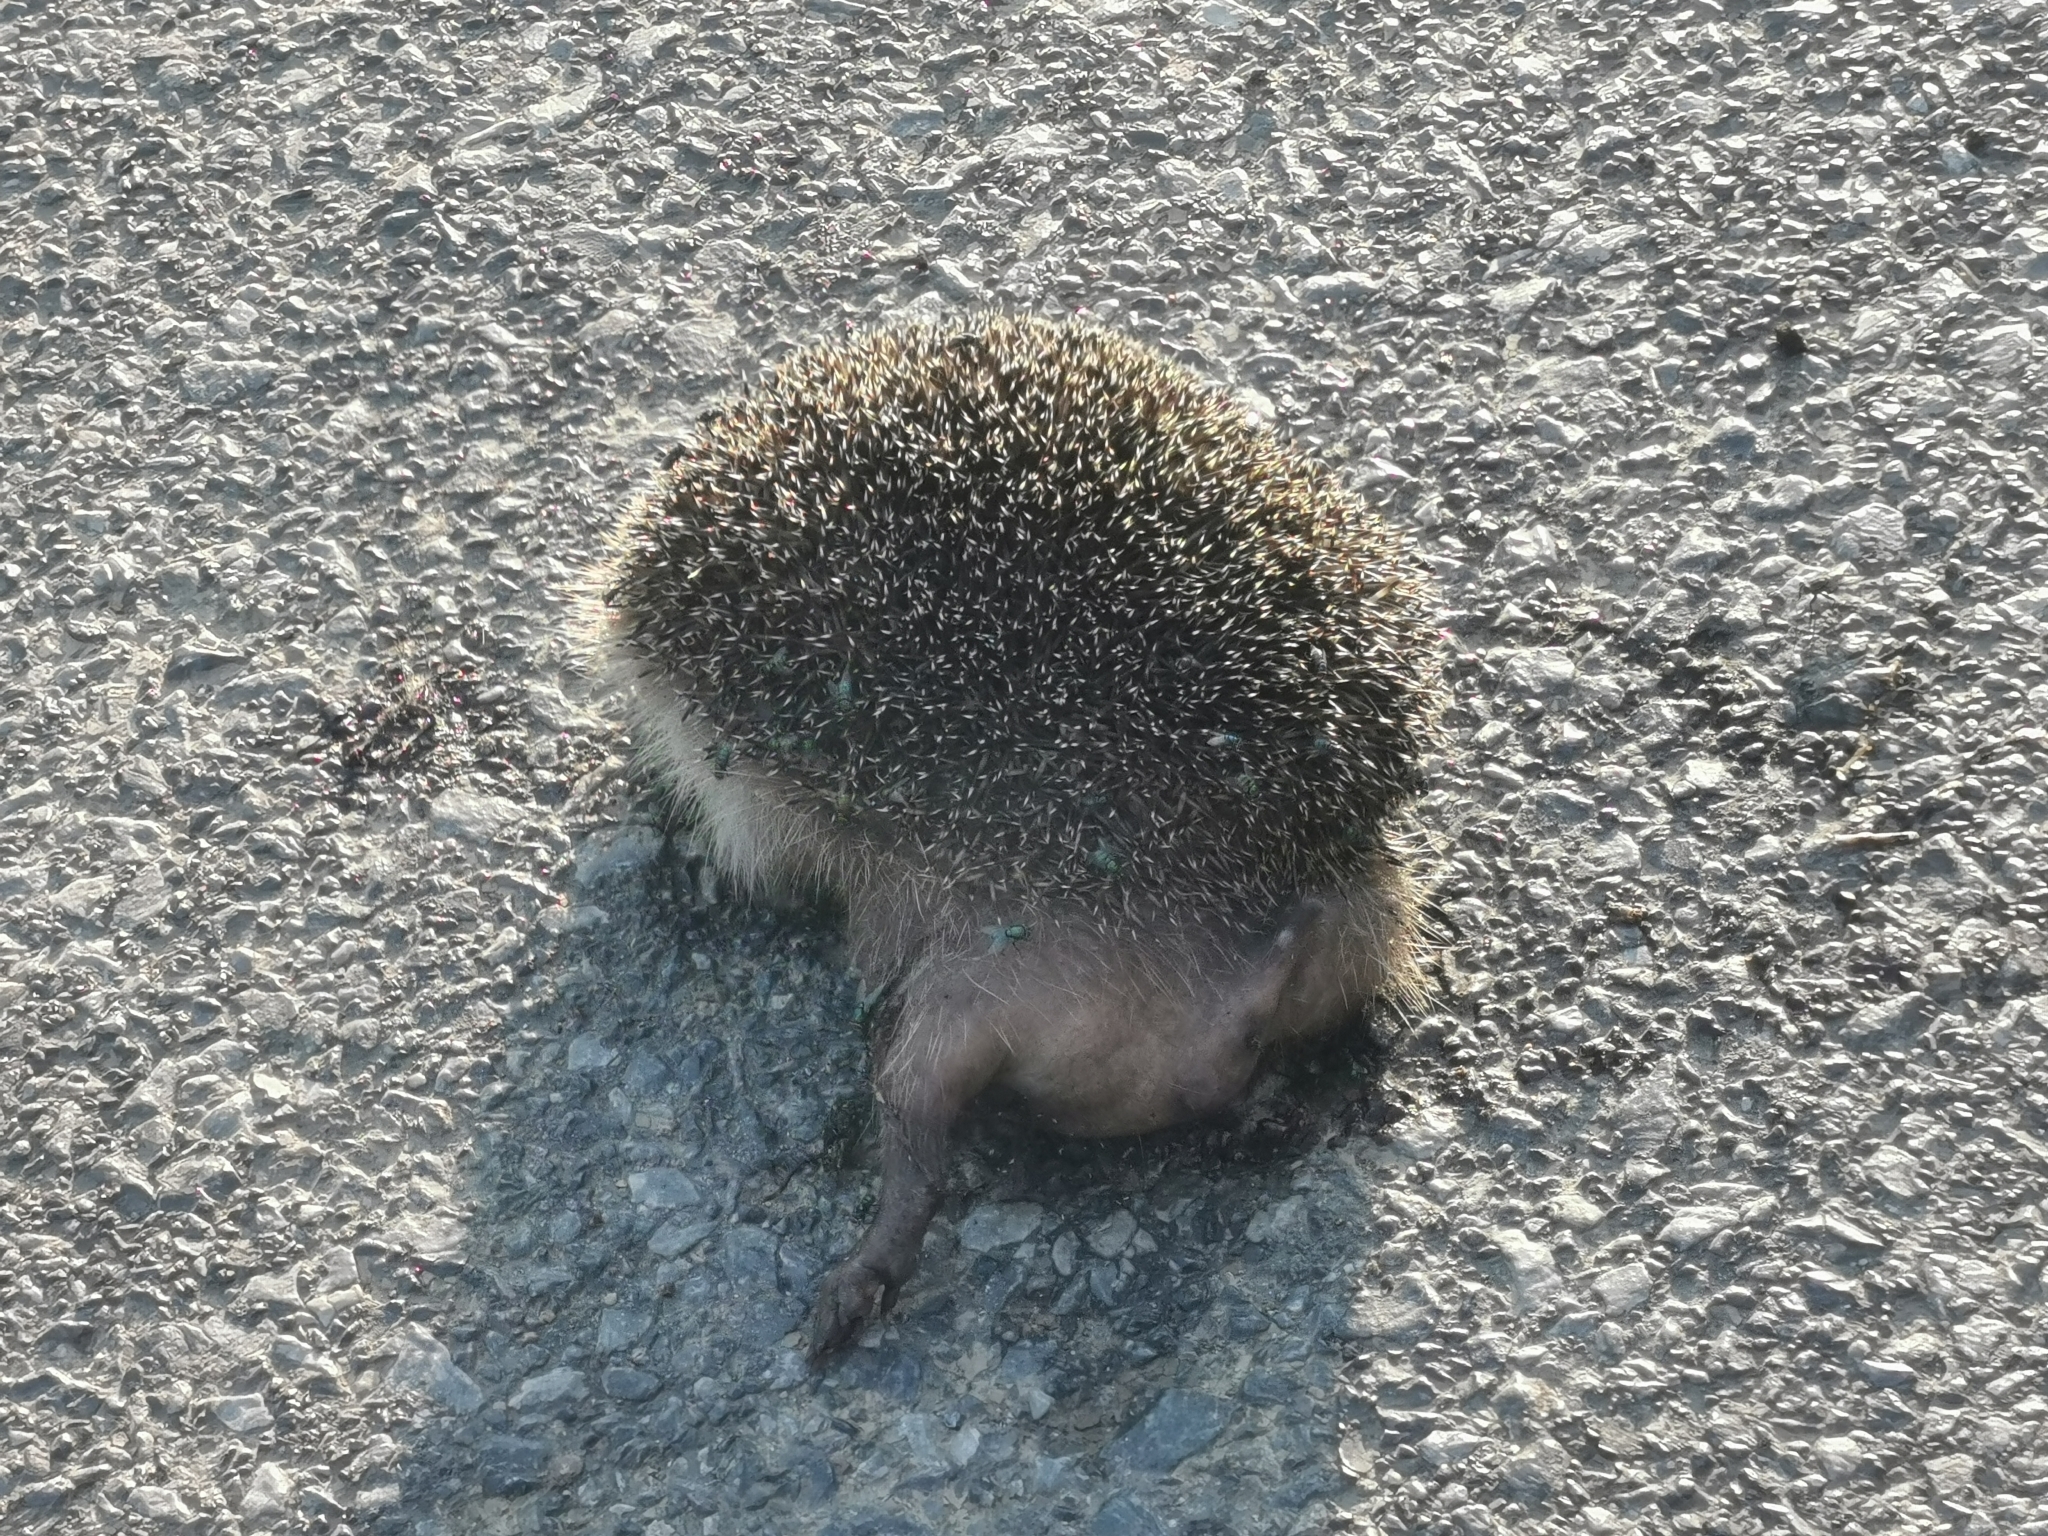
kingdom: Animalia
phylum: Chordata
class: Mammalia
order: Erinaceomorpha
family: Erinaceidae
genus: Erinaceus
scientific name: Erinaceus roumanicus
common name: Northern white-breasted hedgehog
